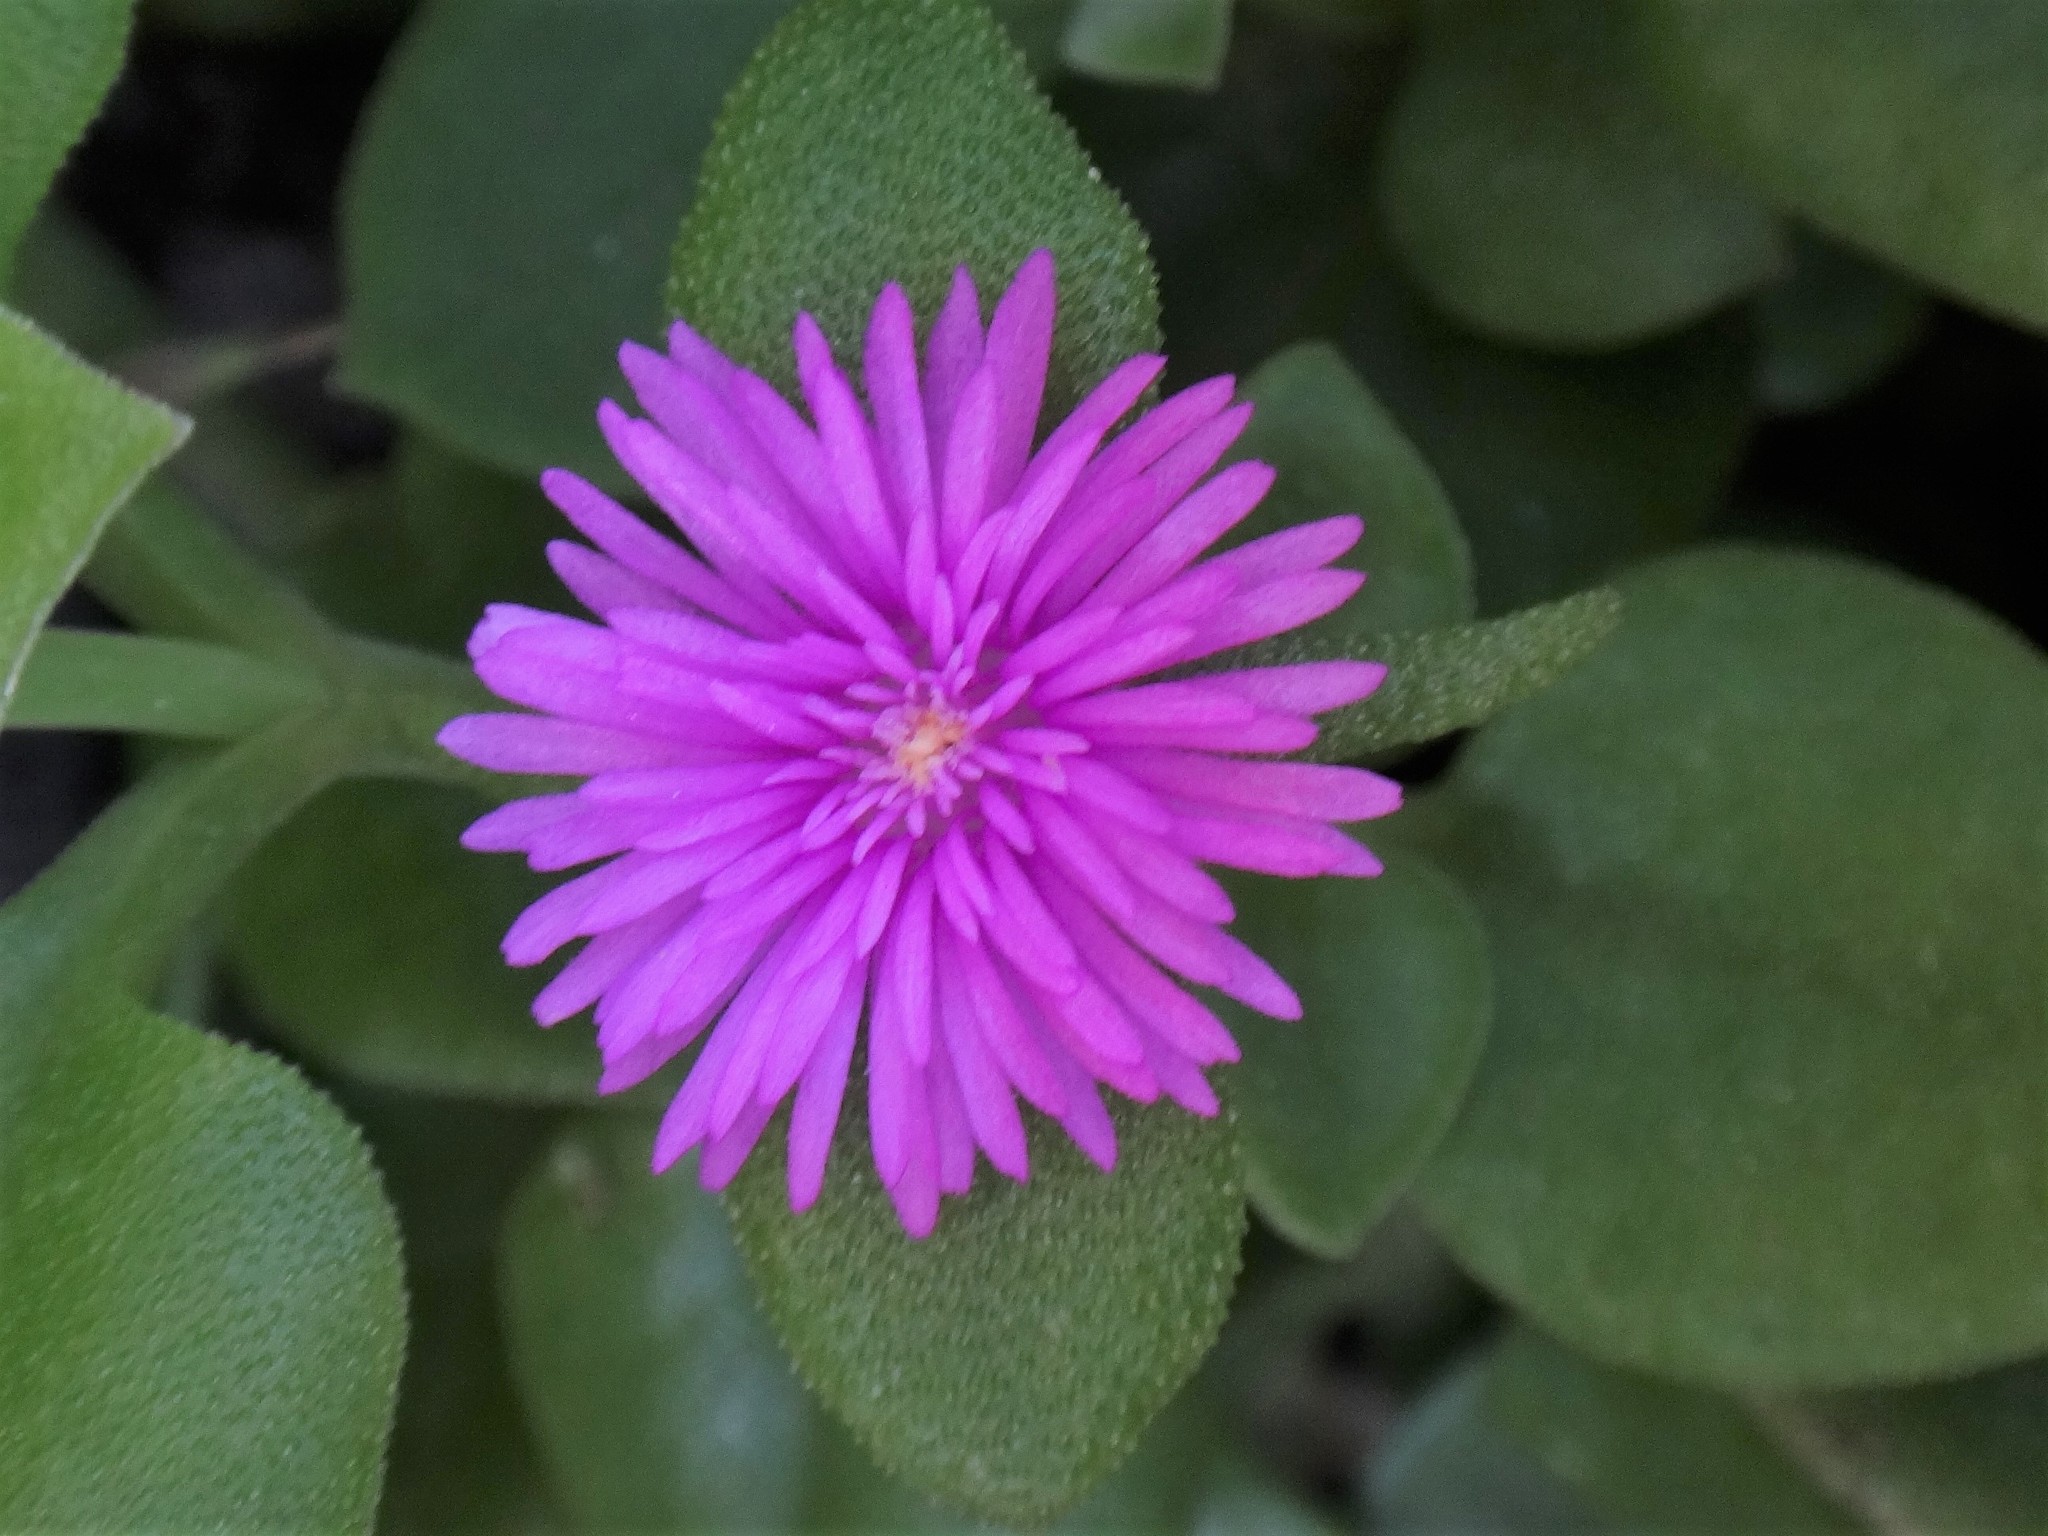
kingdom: Plantae
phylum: Tracheophyta
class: Magnoliopsida
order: Caryophyllales
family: Aizoaceae
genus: Mesembryanthemum
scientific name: Mesembryanthemum cordifolium
